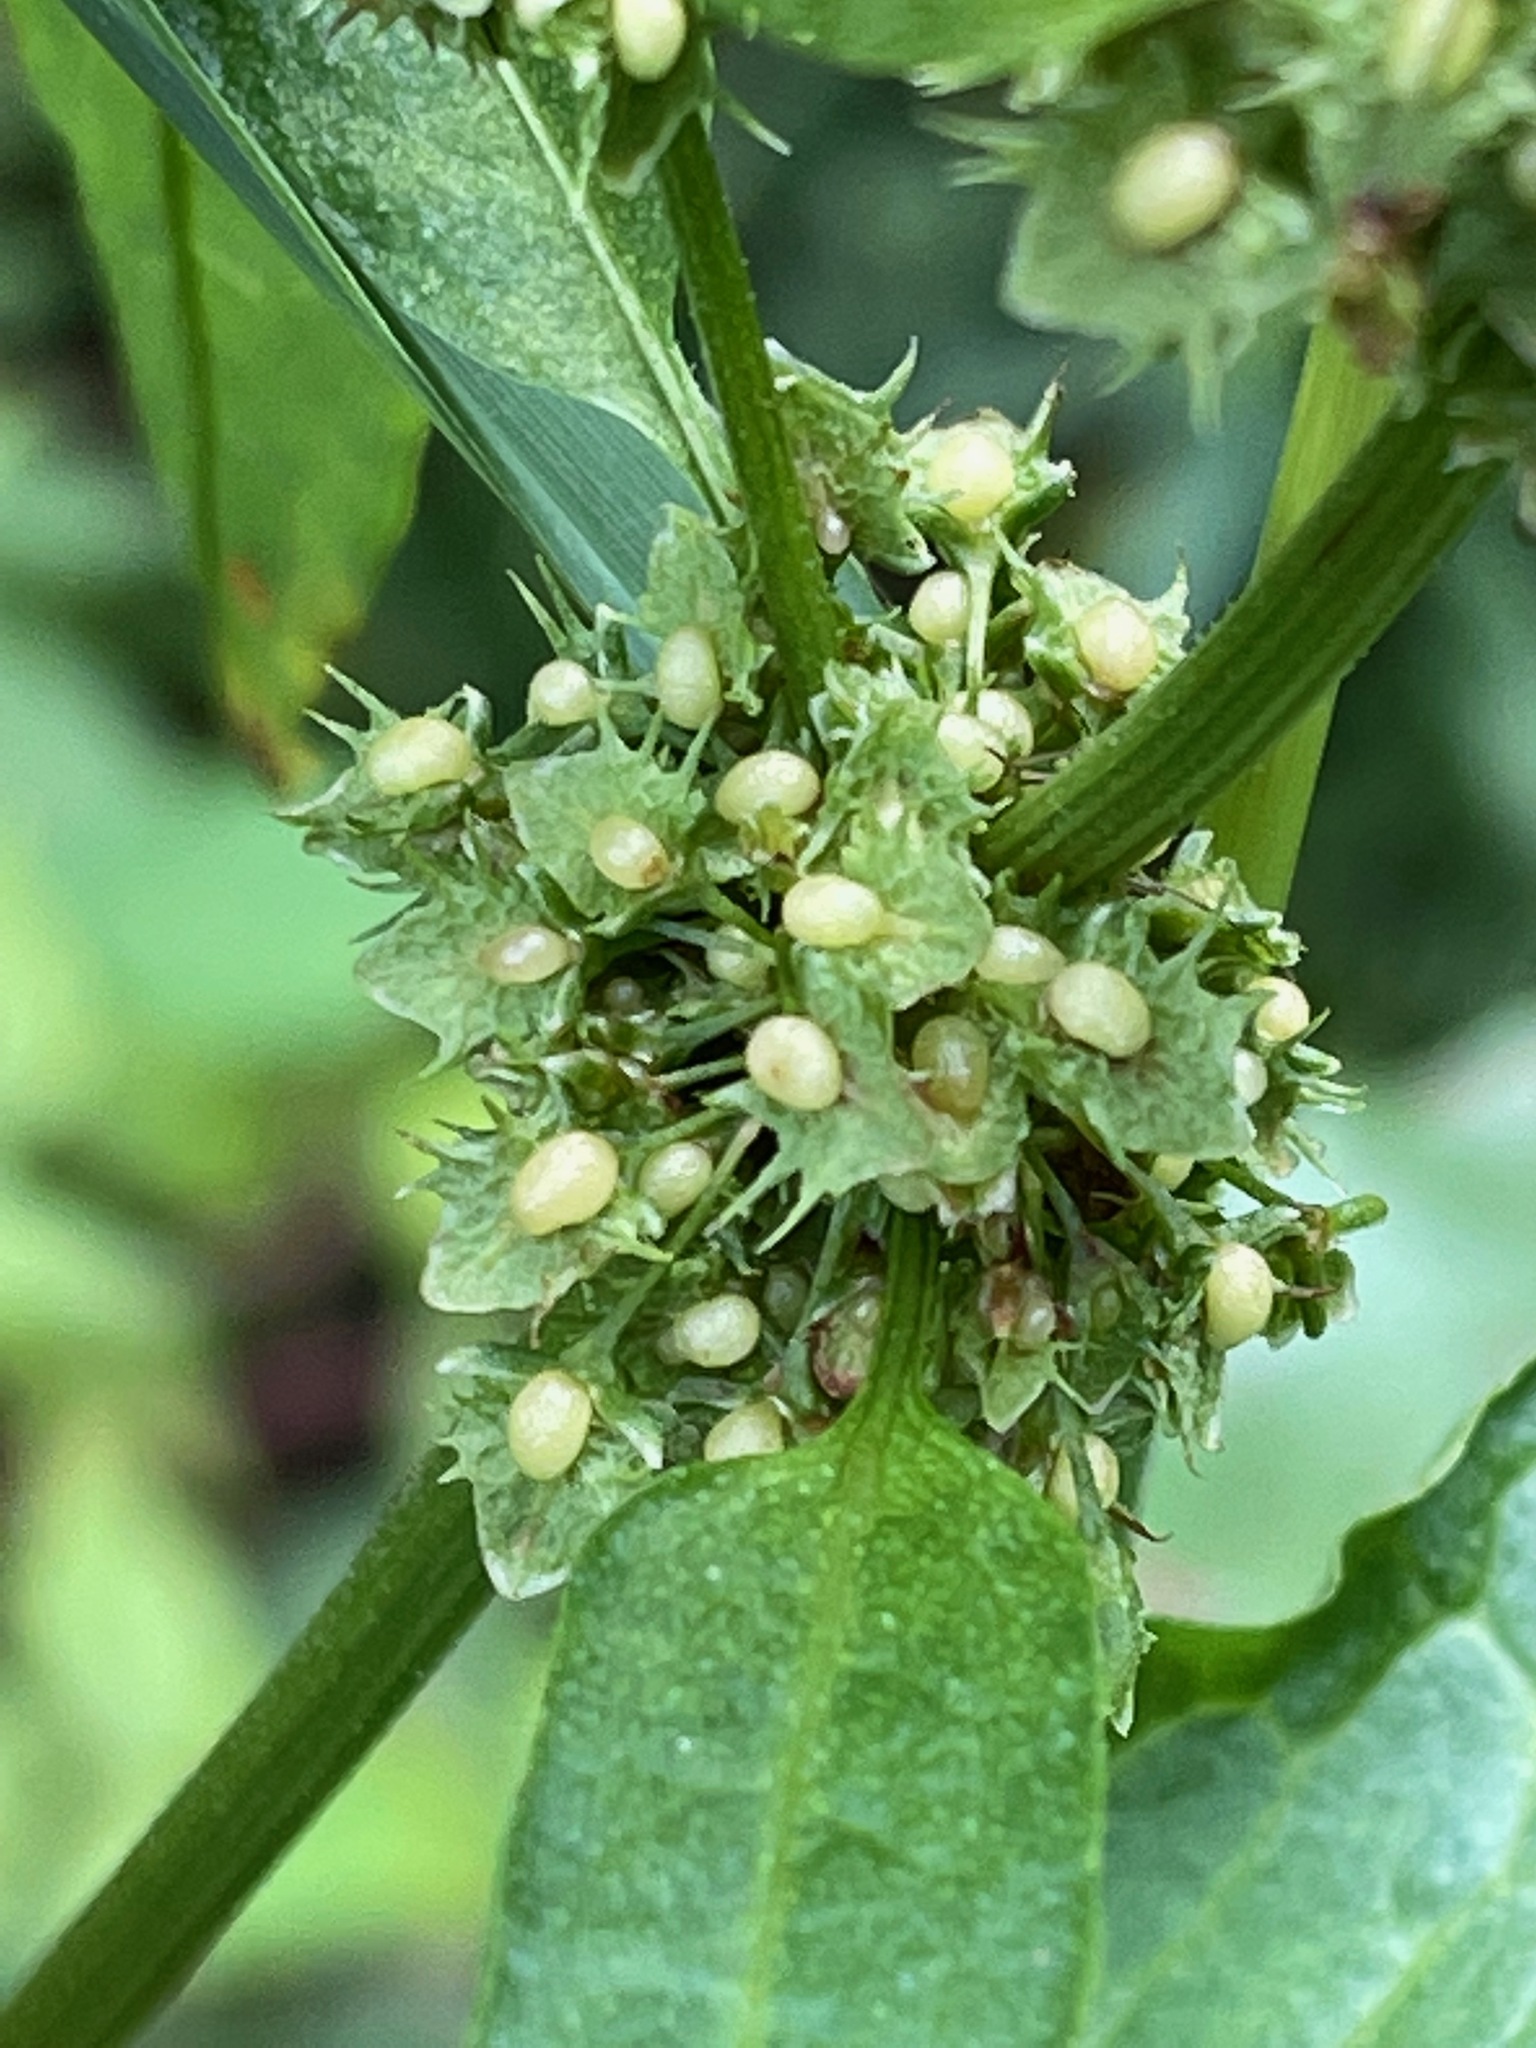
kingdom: Plantae
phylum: Tracheophyta
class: Magnoliopsida
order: Caryophyllales
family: Polygonaceae
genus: Rumex
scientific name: Rumex obtusifolius
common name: Bitter dock
